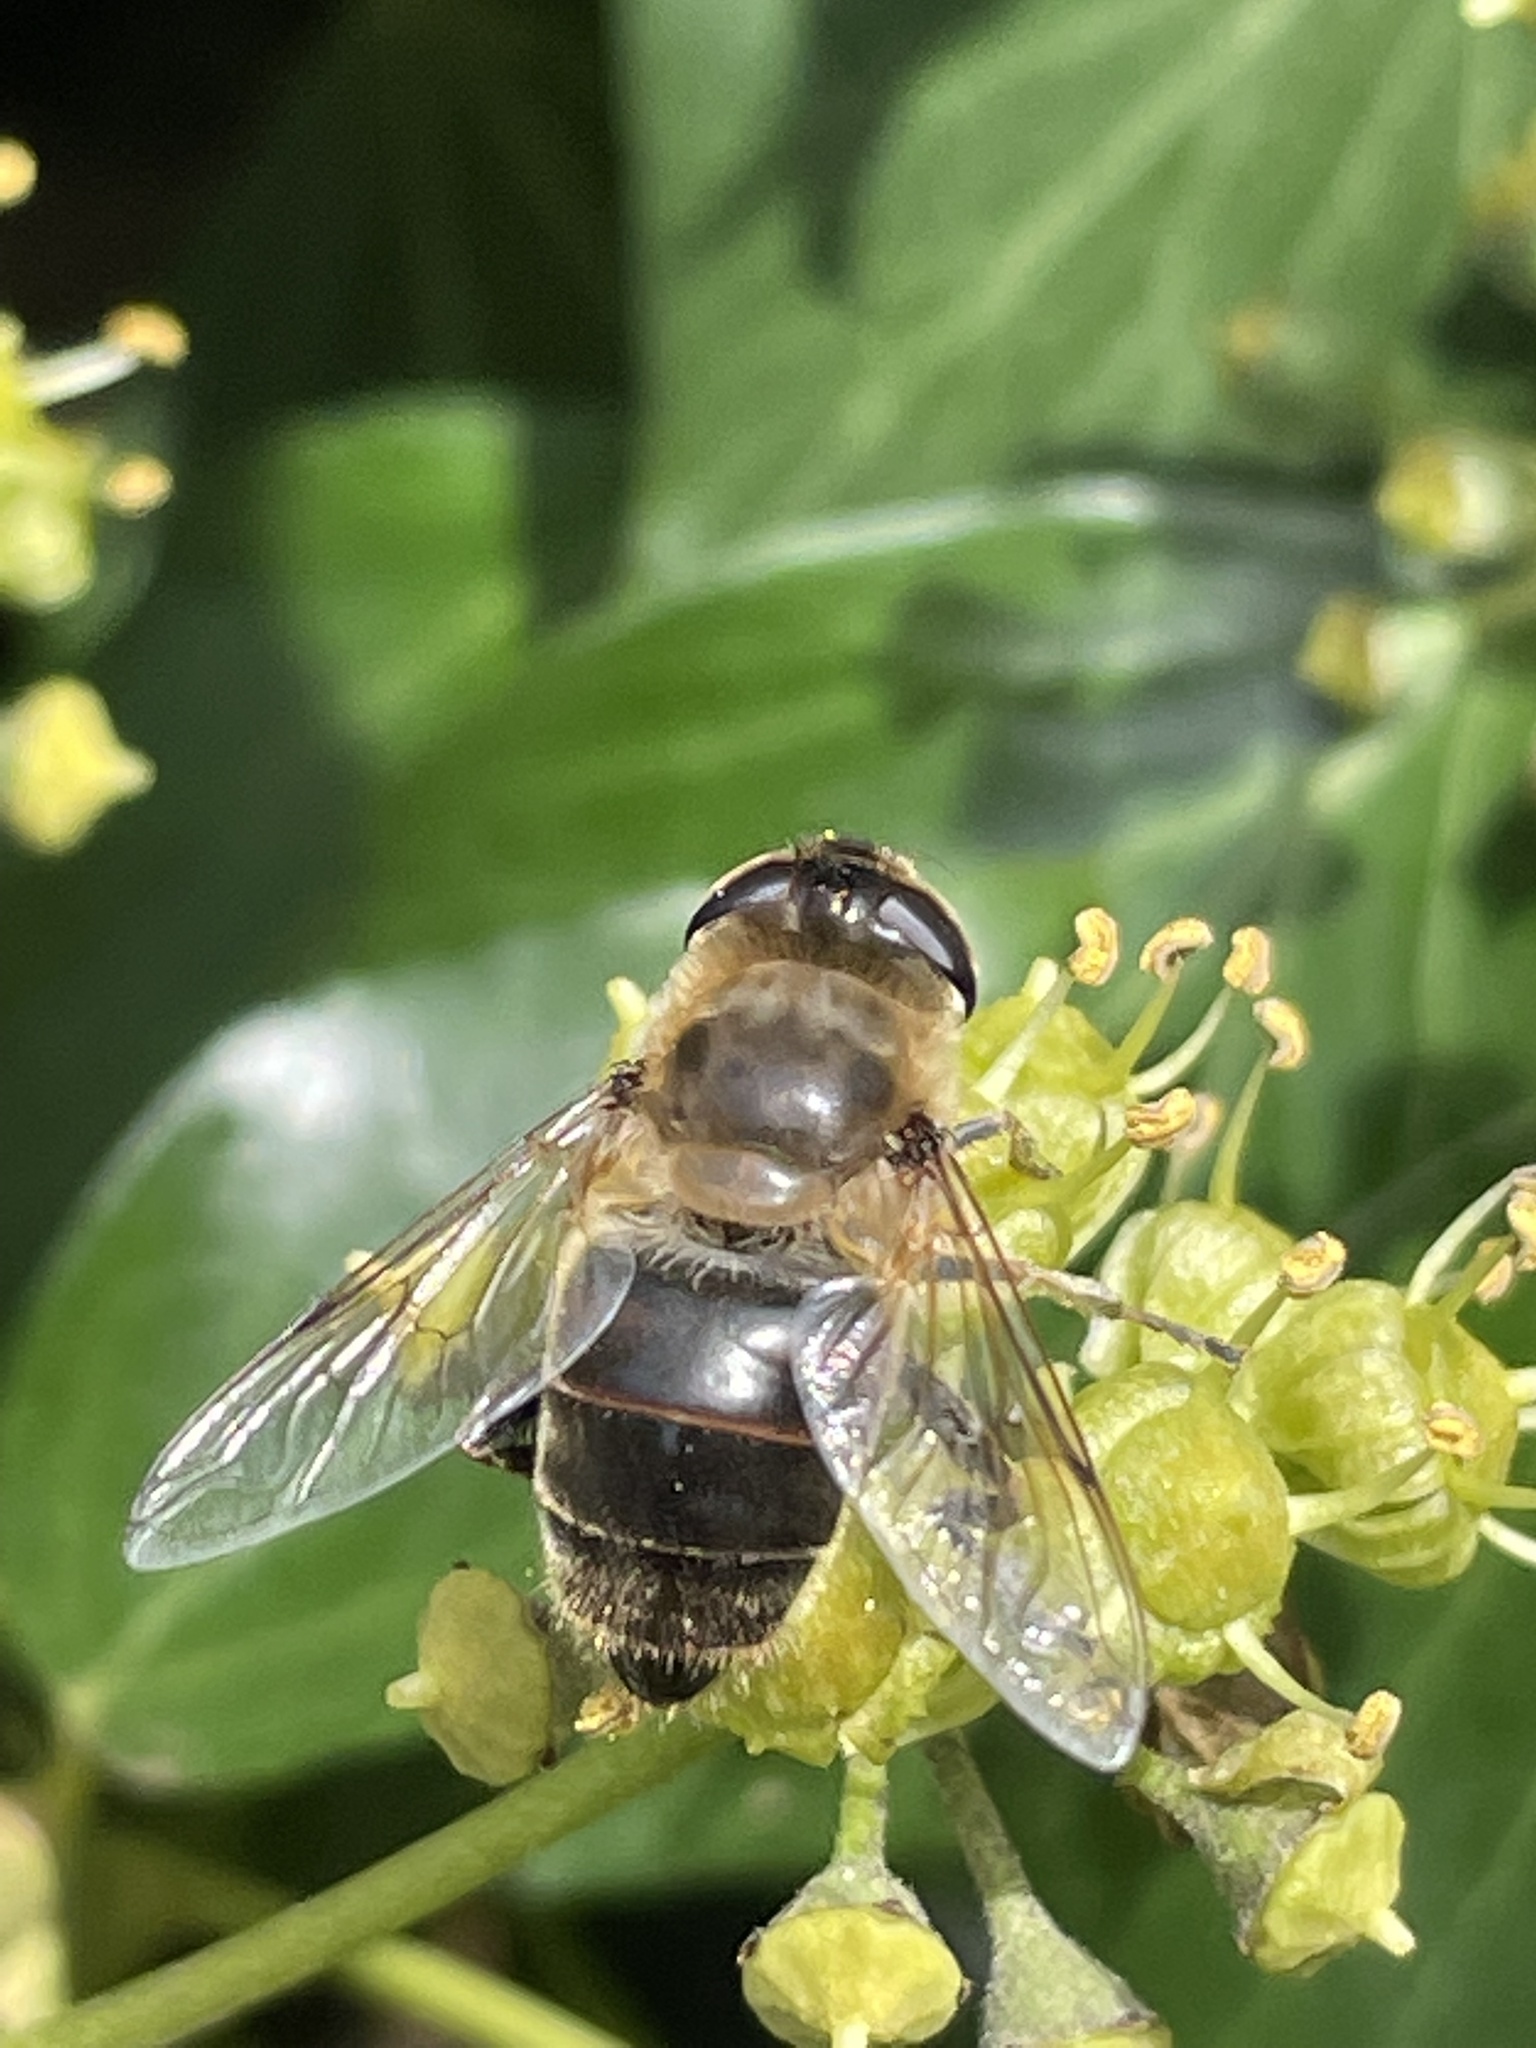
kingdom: Animalia
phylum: Arthropoda
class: Insecta
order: Diptera
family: Syrphidae
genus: Eristalis
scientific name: Eristalis tenax
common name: Drone fly
